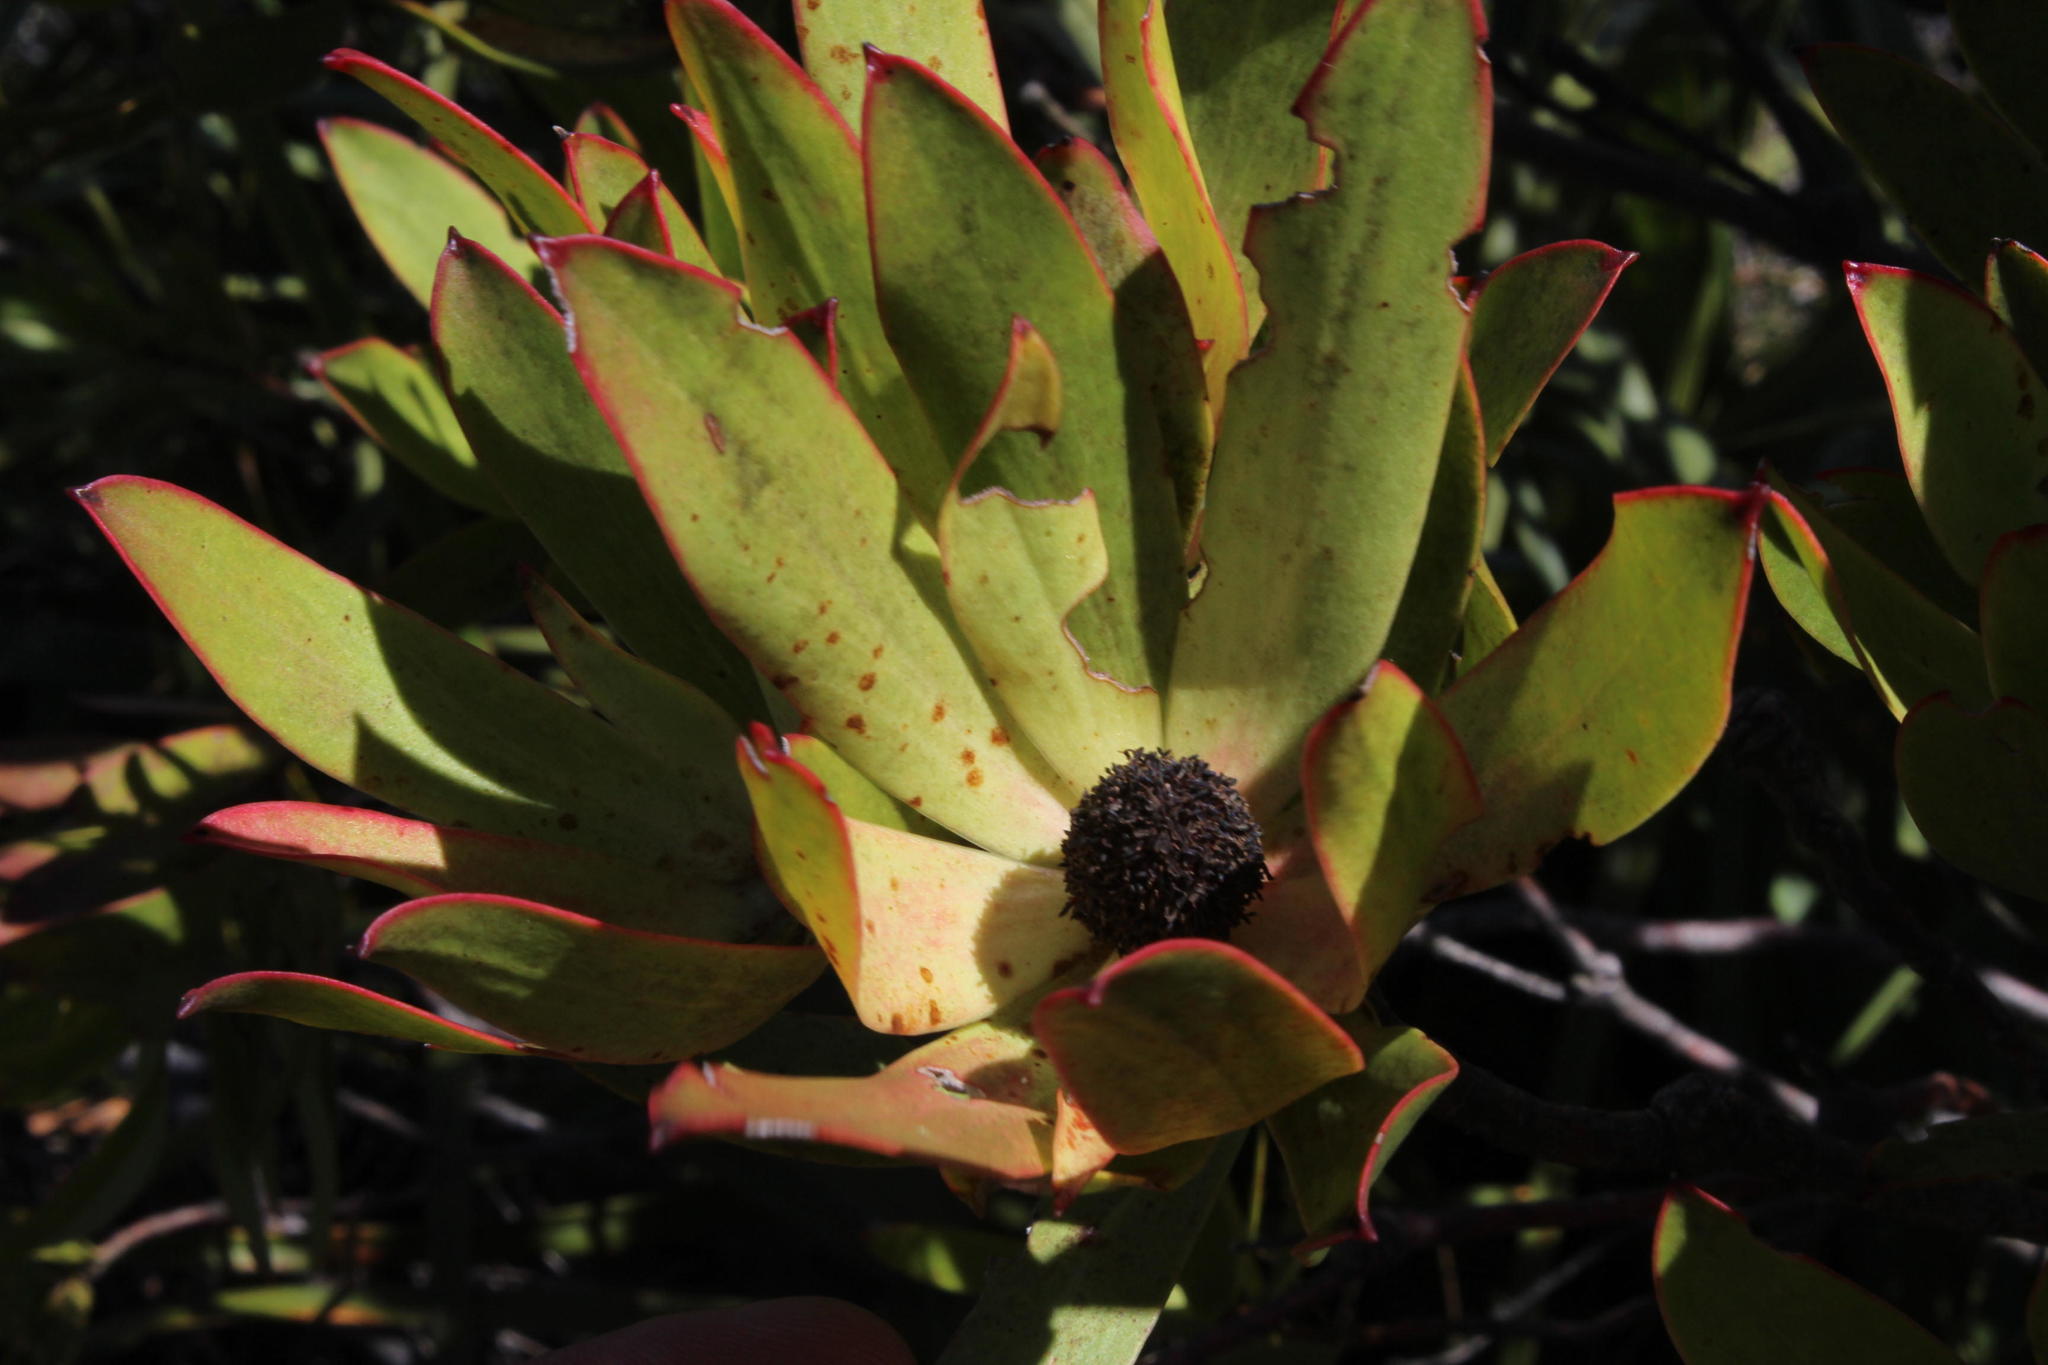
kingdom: Plantae
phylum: Tracheophyta
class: Magnoliopsida
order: Proteales
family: Proteaceae
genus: Leucadendron
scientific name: Leucadendron gandogeri
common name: Broad-leaf conebush
